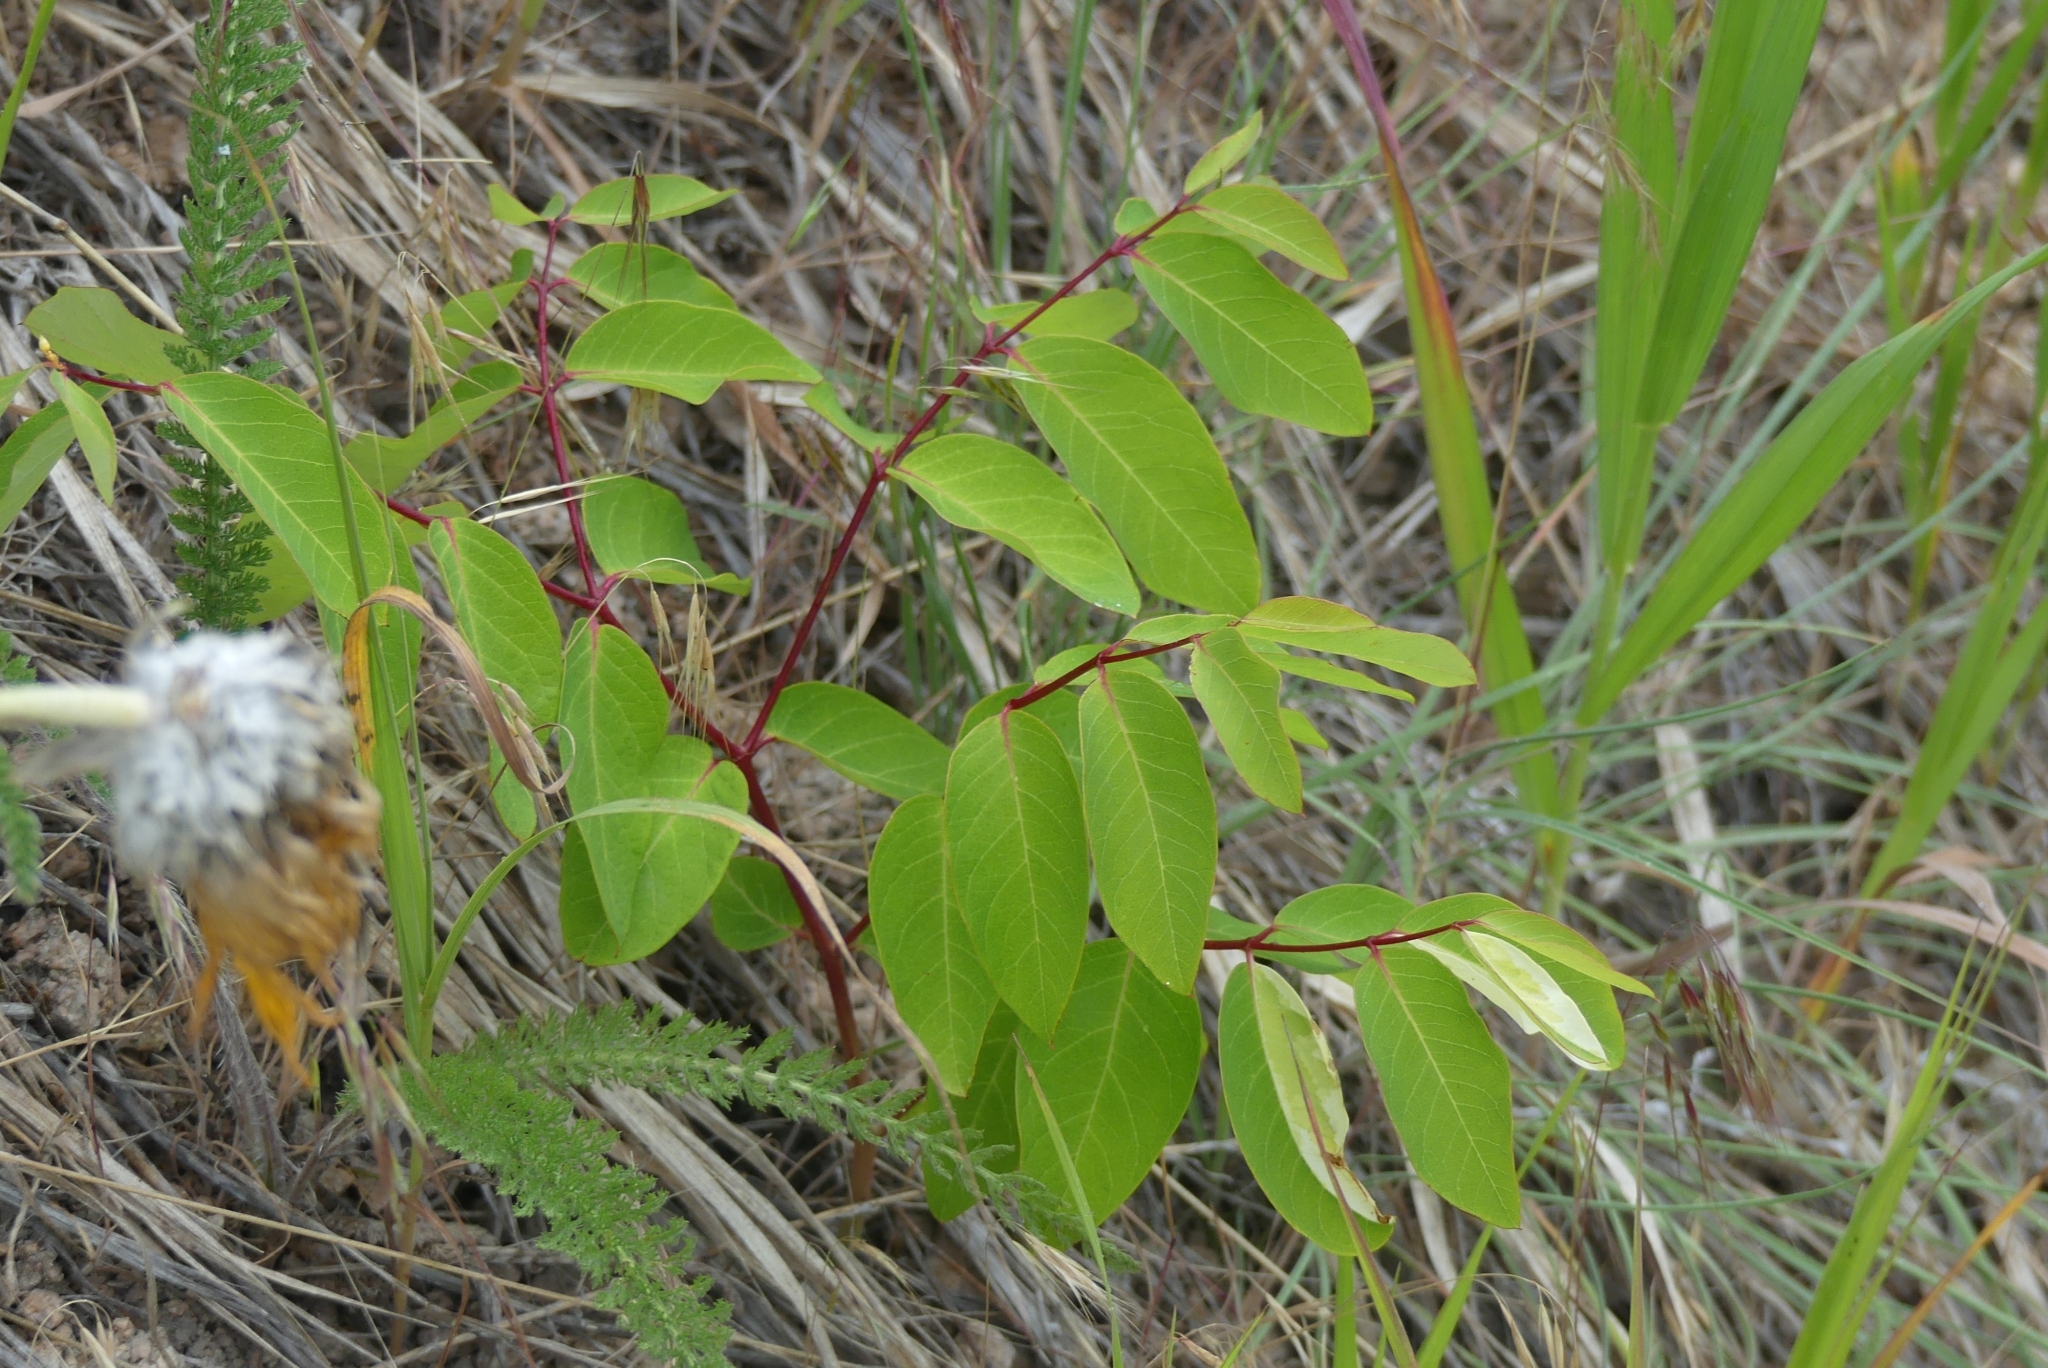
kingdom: Plantae
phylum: Tracheophyta
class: Magnoliopsida
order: Gentianales
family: Apocynaceae
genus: Apocynum
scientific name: Apocynum androsaemifolium
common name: Spreading dogbane
